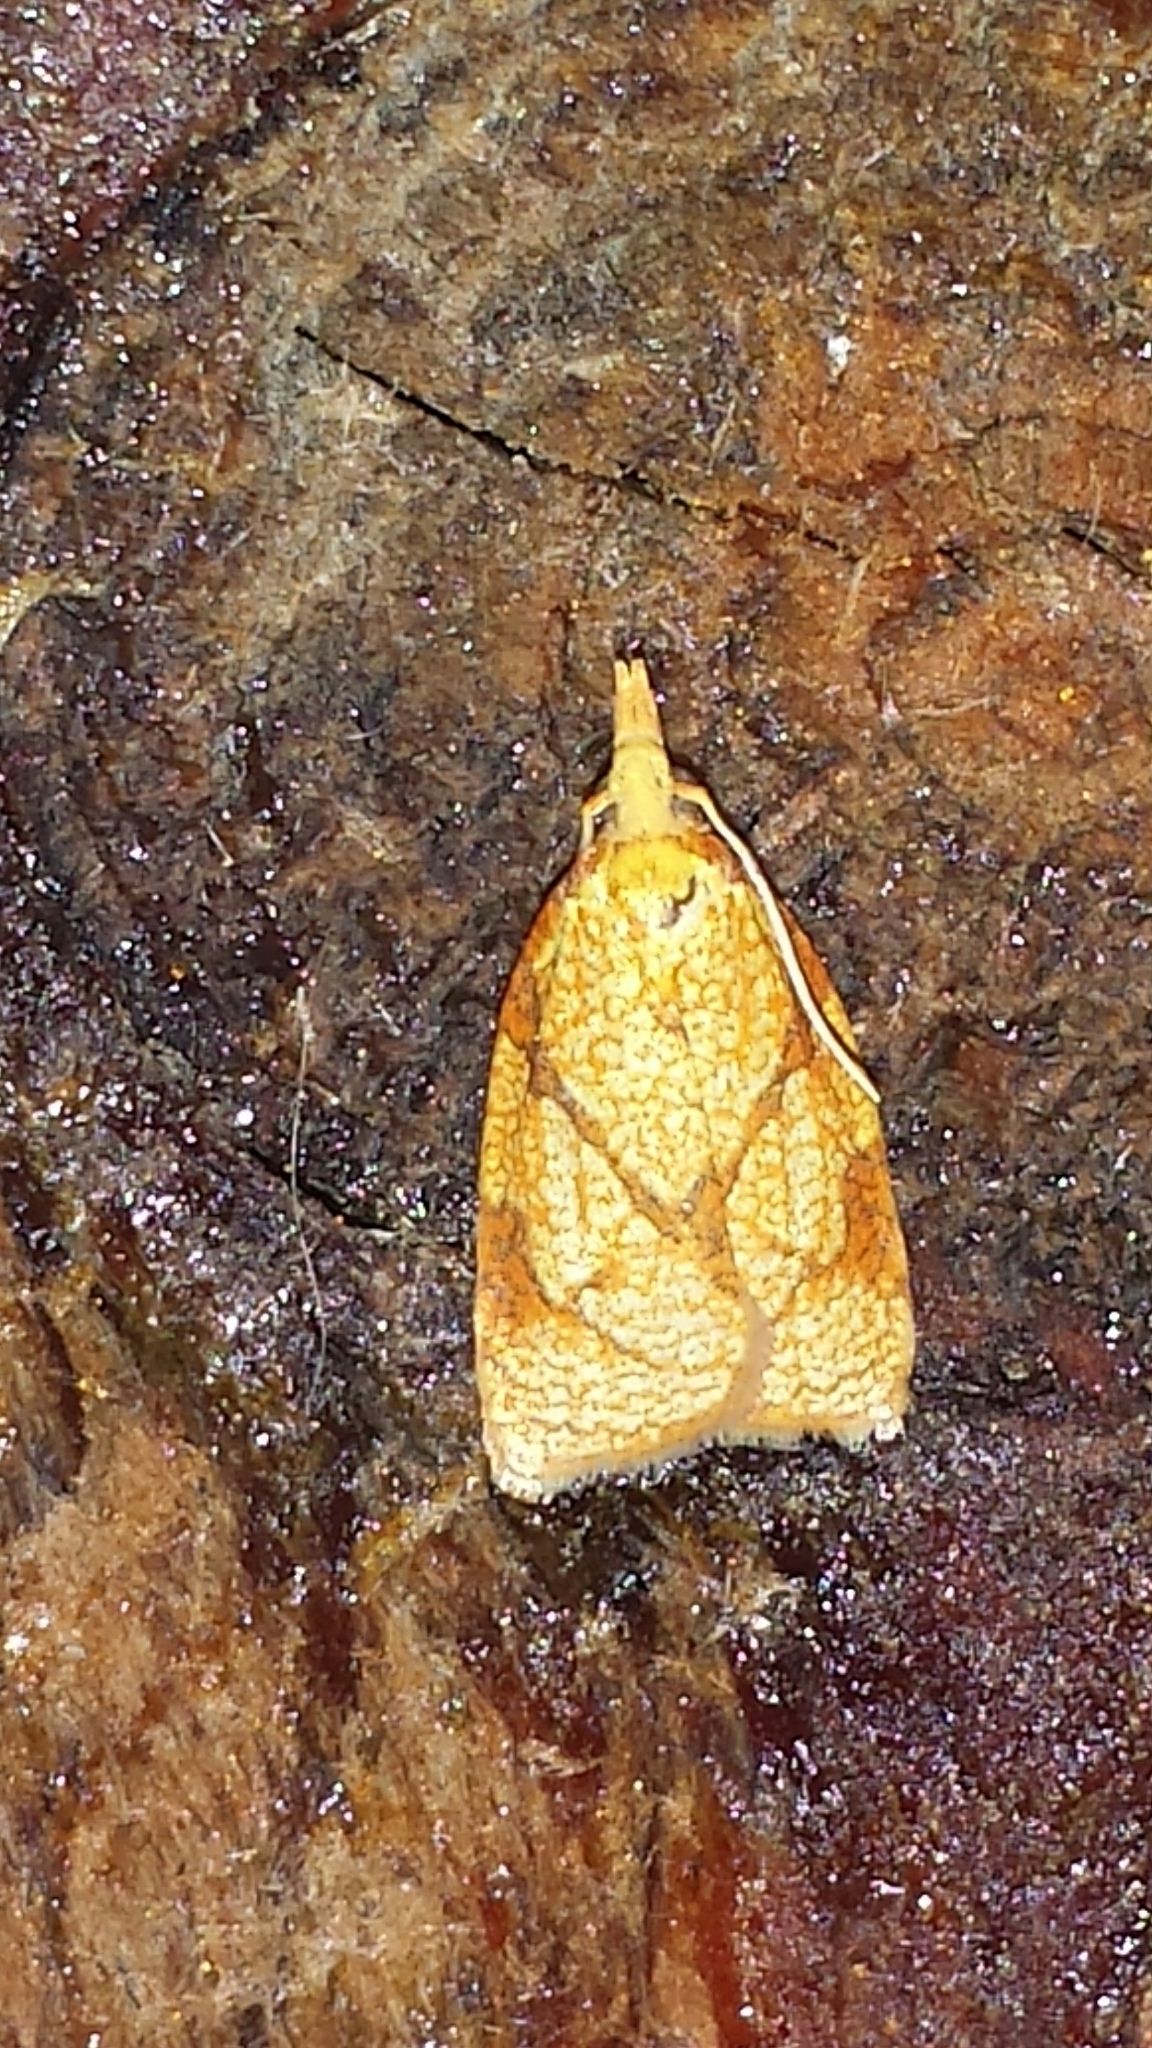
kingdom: Animalia
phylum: Arthropoda
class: Insecta
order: Lepidoptera
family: Tortricidae
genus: Cenopis
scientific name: Cenopis reticulatana
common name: Reticulated fruitworm moth
